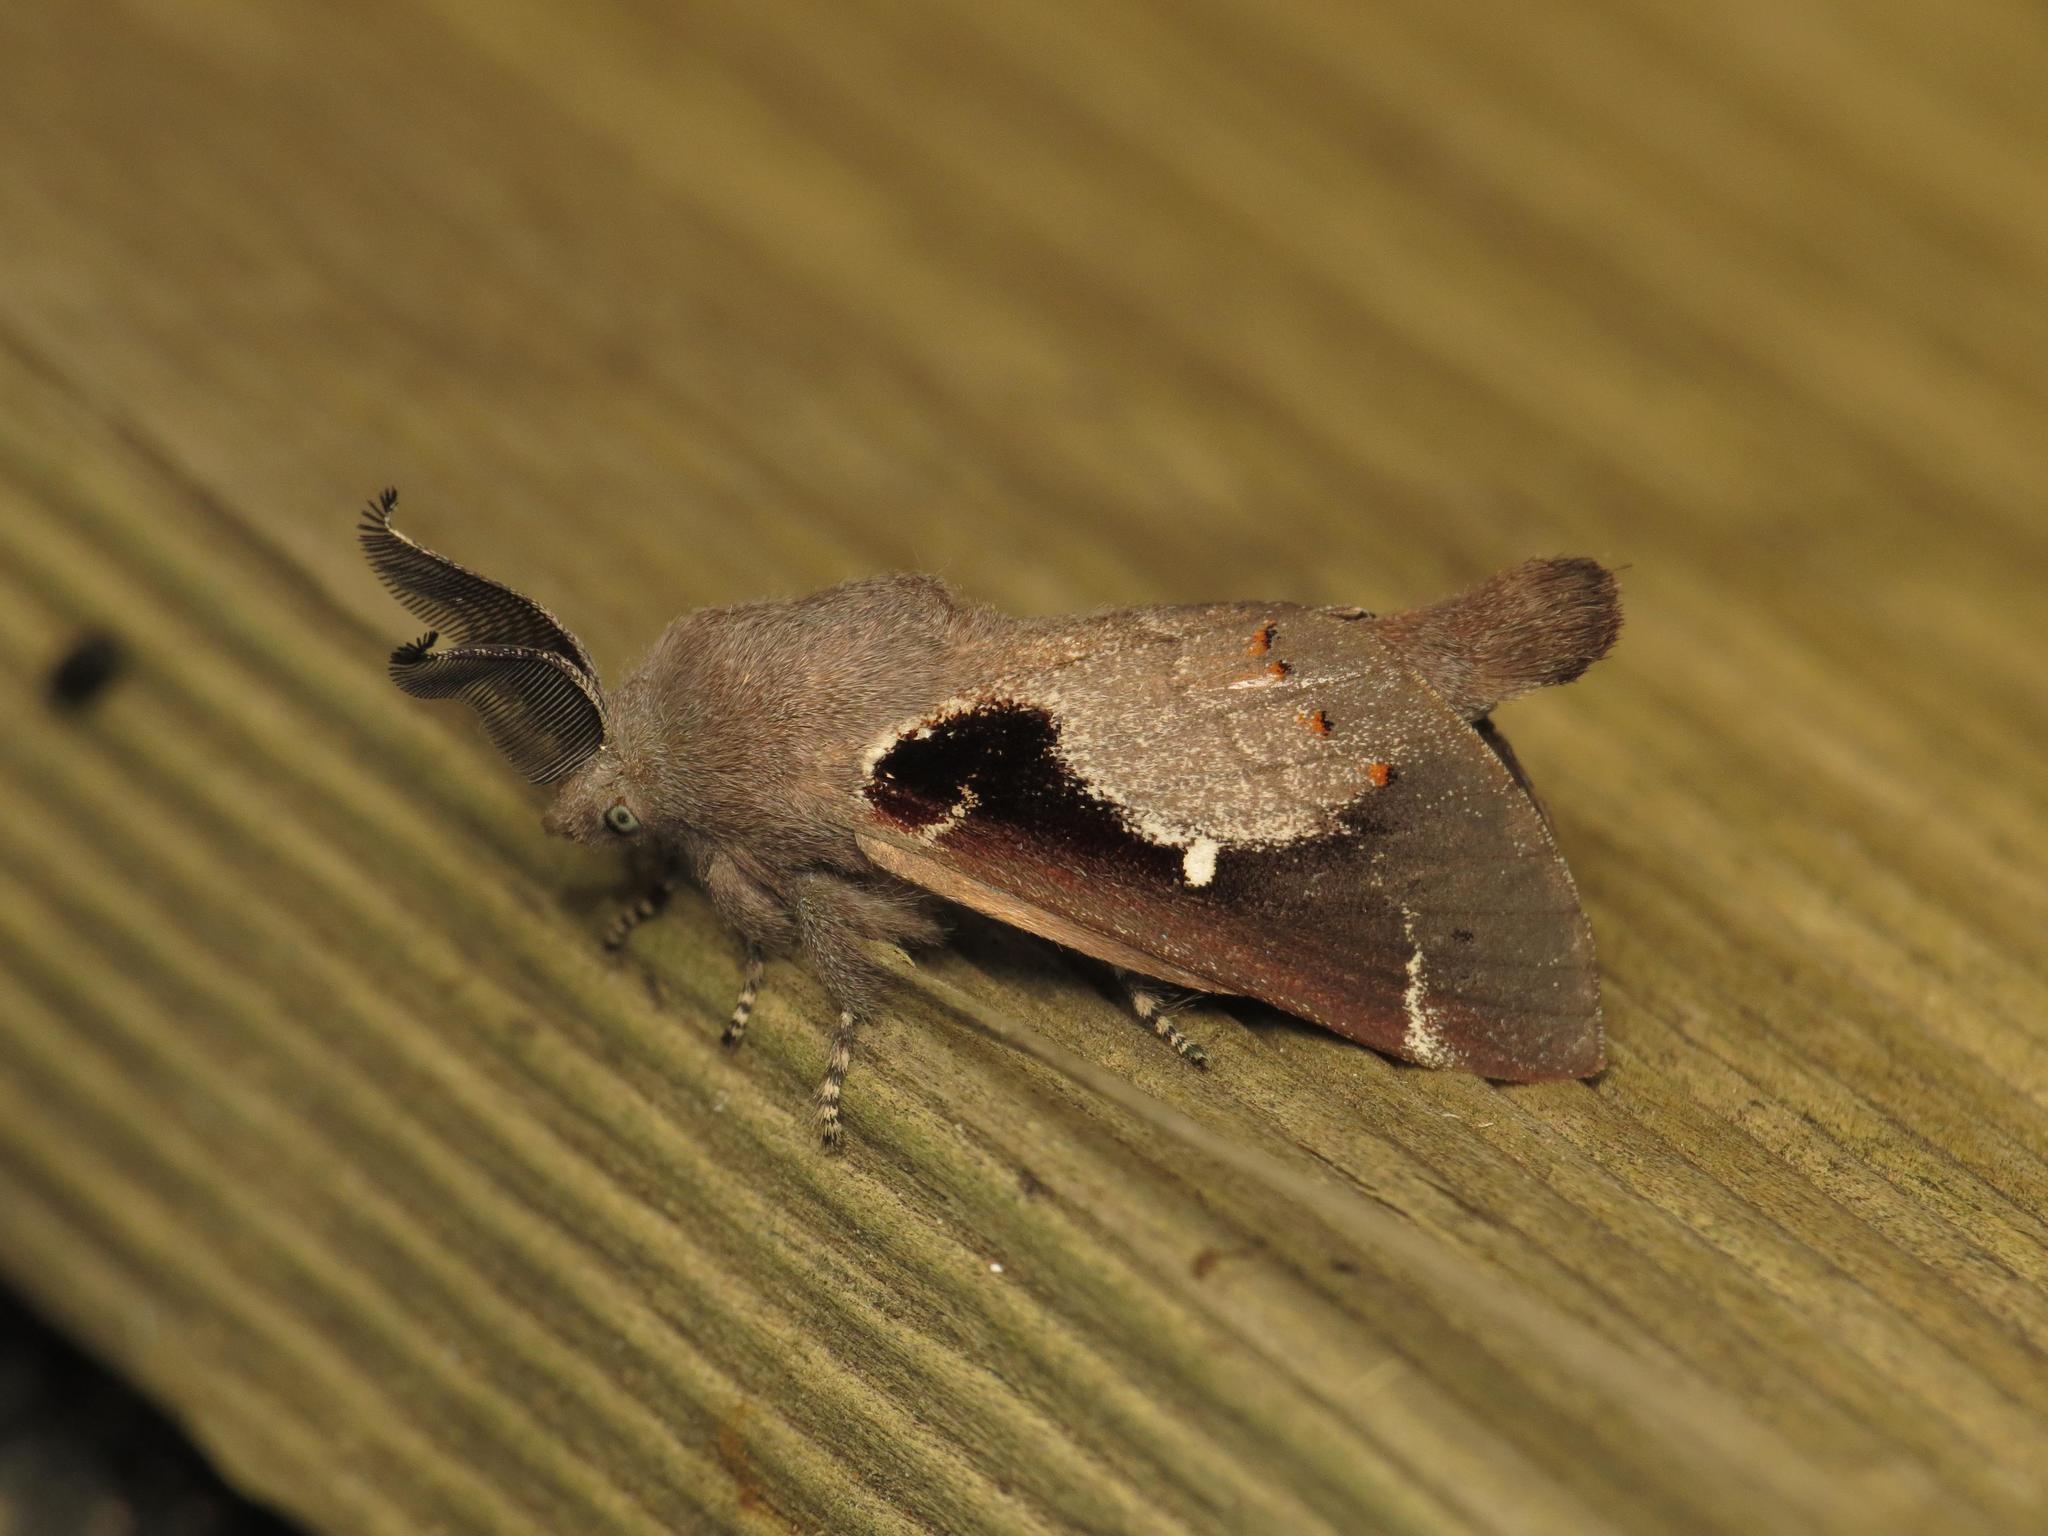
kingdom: Animalia
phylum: Arthropoda
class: Insecta
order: Lepidoptera
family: Lasiocampidae
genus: Pinara
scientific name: Pinara divisa
